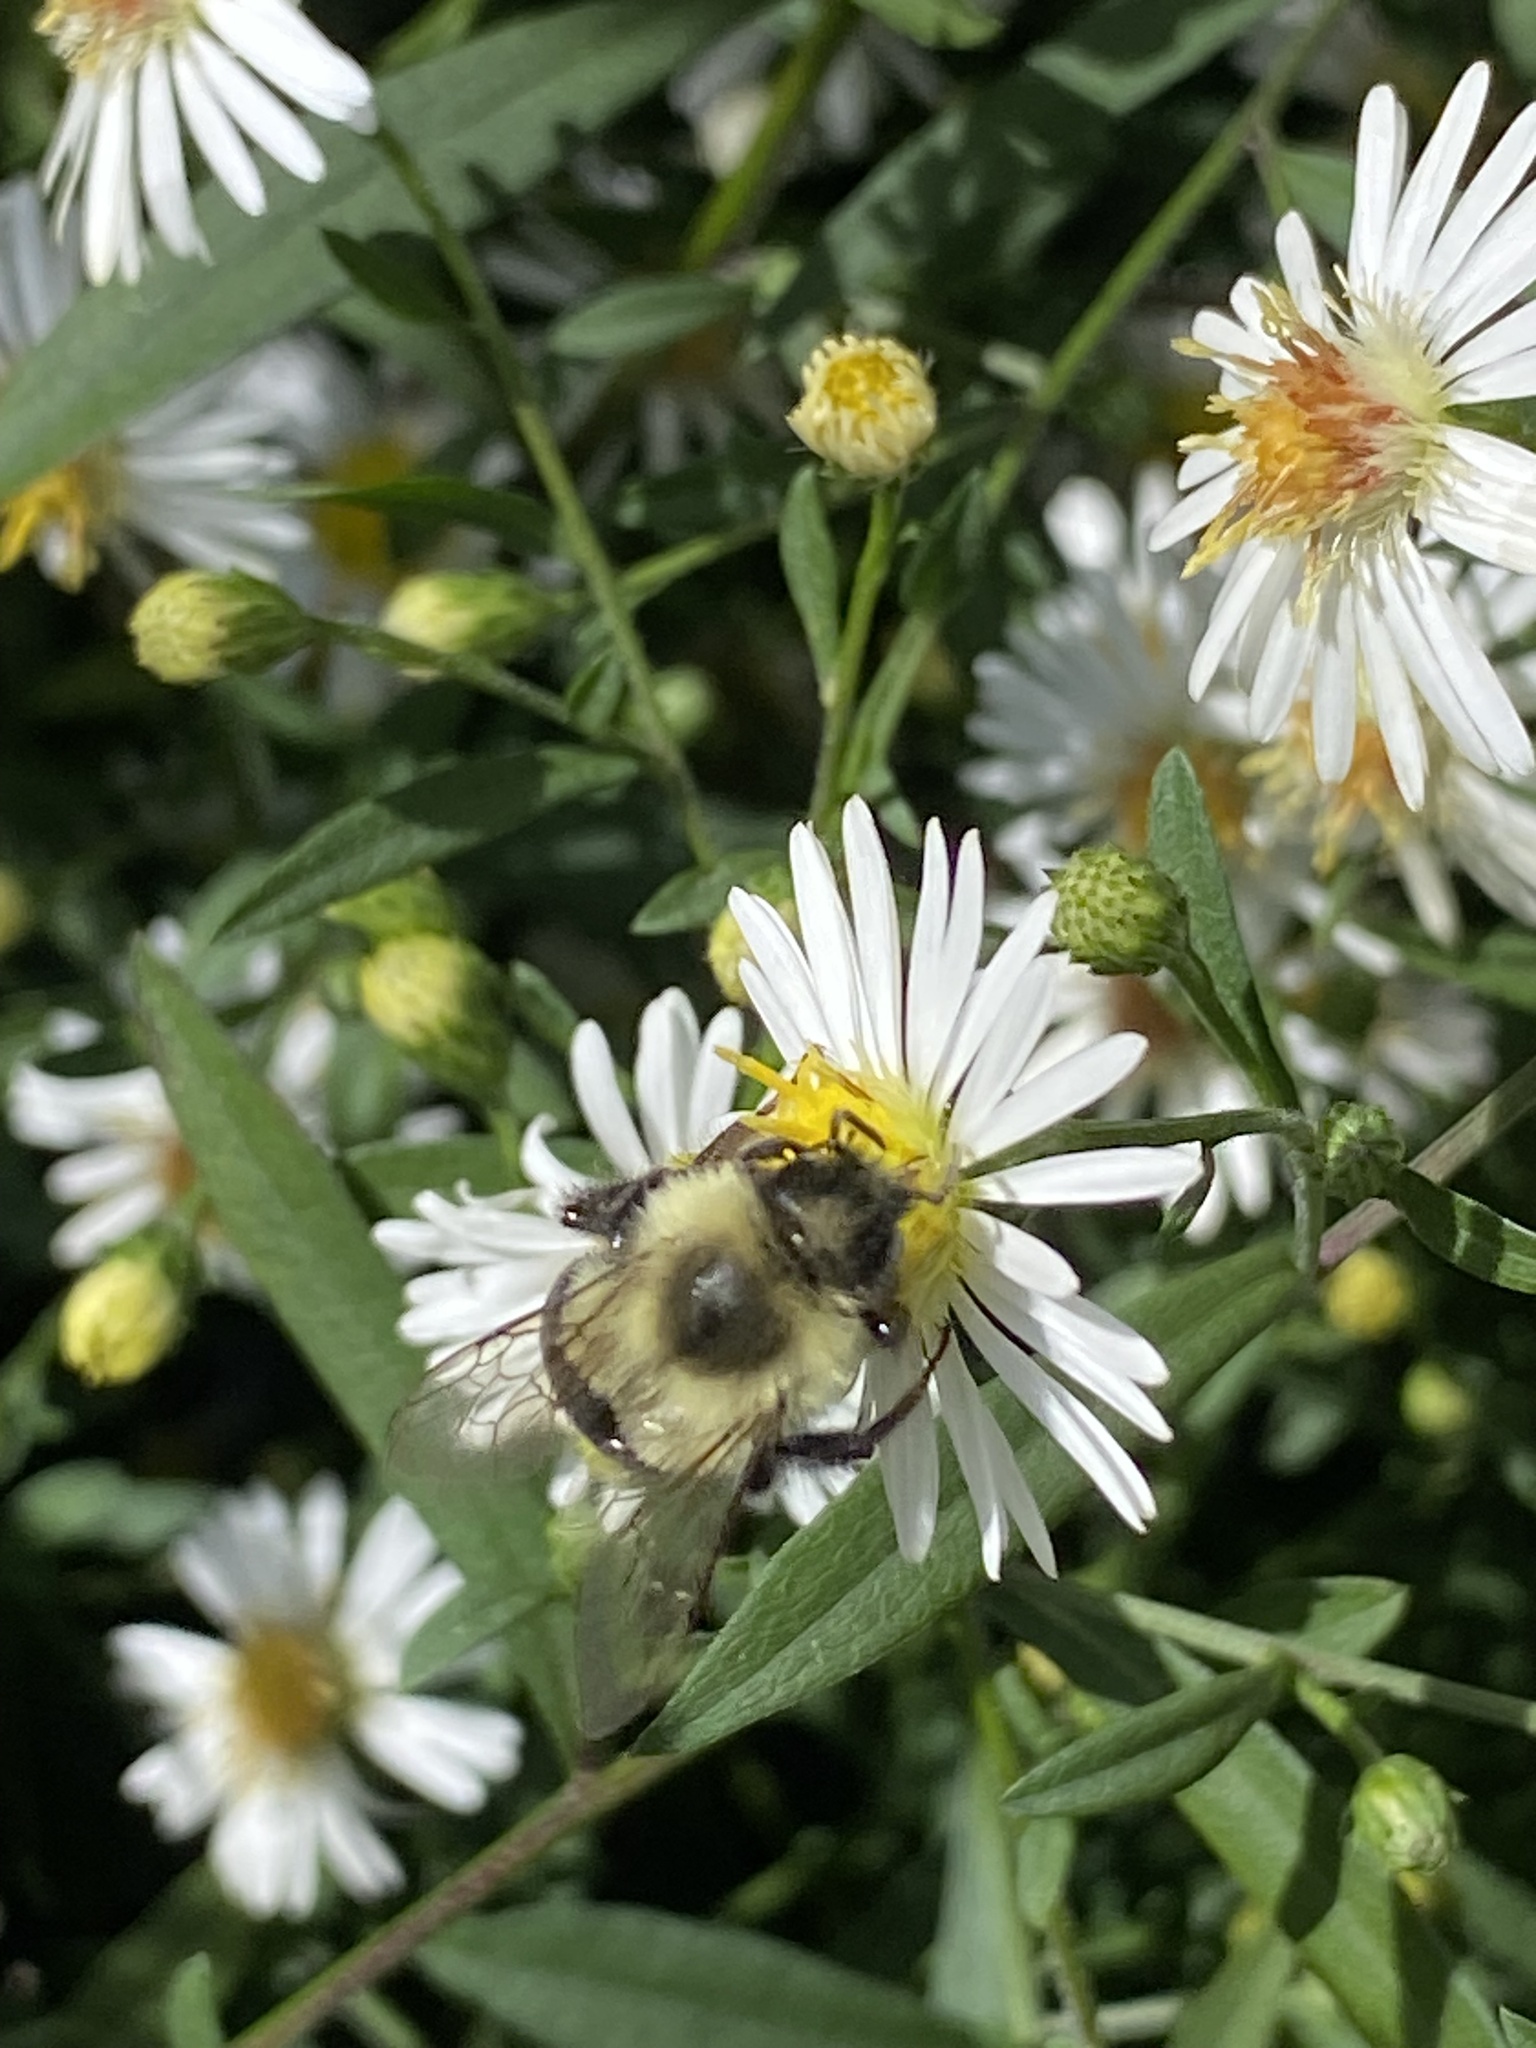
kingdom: Animalia
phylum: Arthropoda
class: Insecta
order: Hymenoptera
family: Apidae
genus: Bombus
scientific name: Bombus impatiens
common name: Common eastern bumble bee
